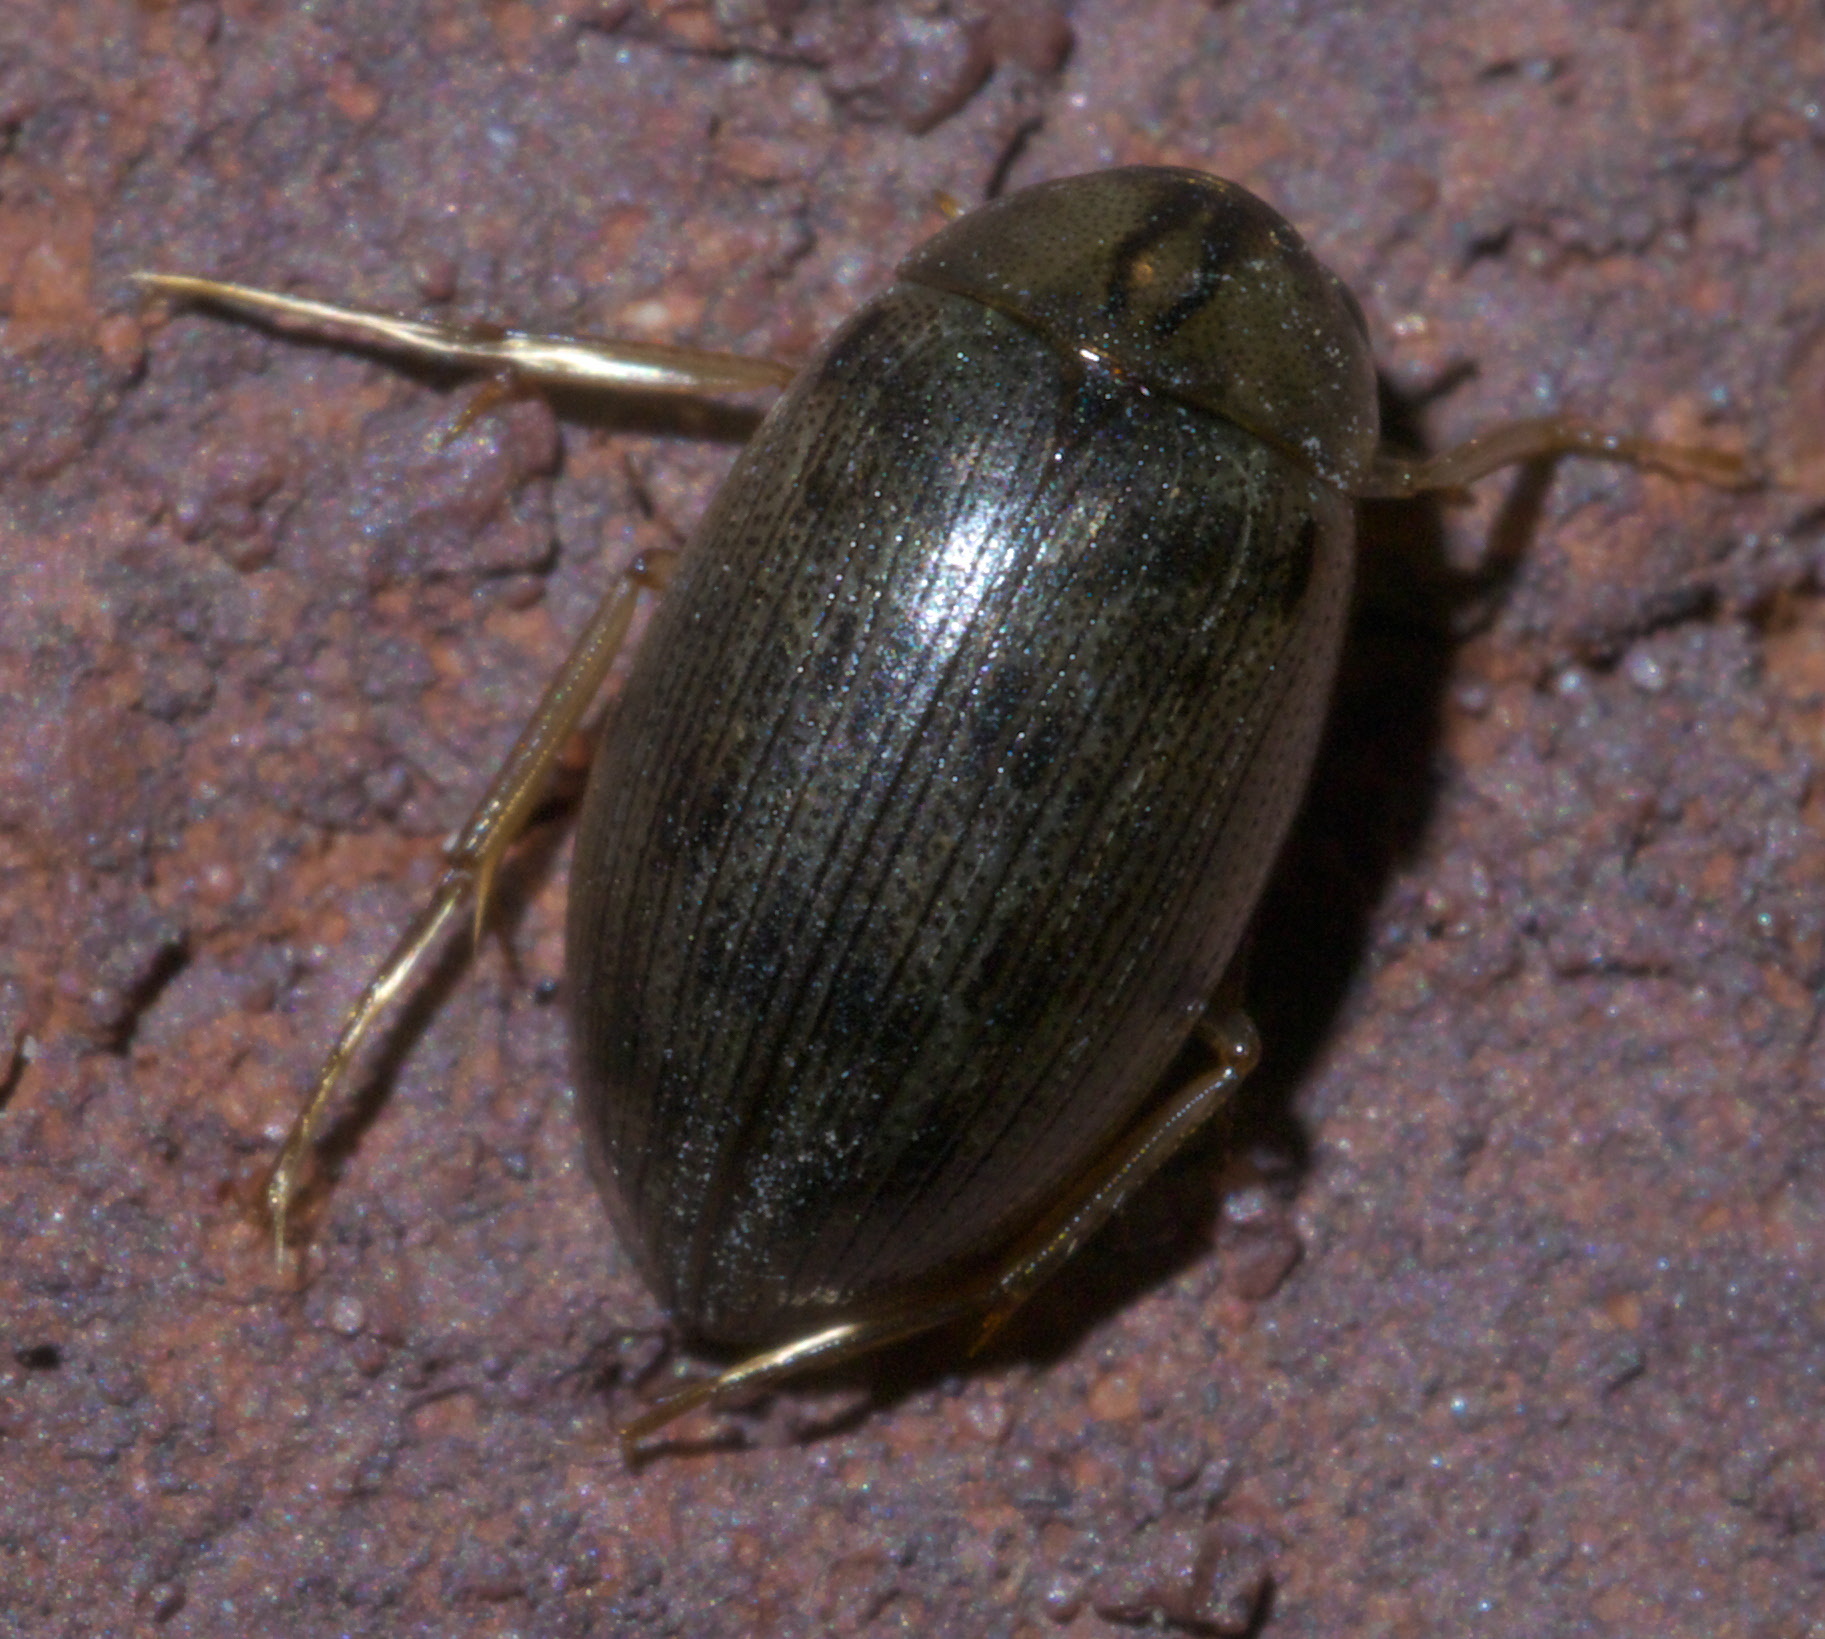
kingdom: Animalia
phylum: Arthropoda
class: Insecta
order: Coleoptera
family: Hydrophilidae
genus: Berosus
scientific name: Berosus
